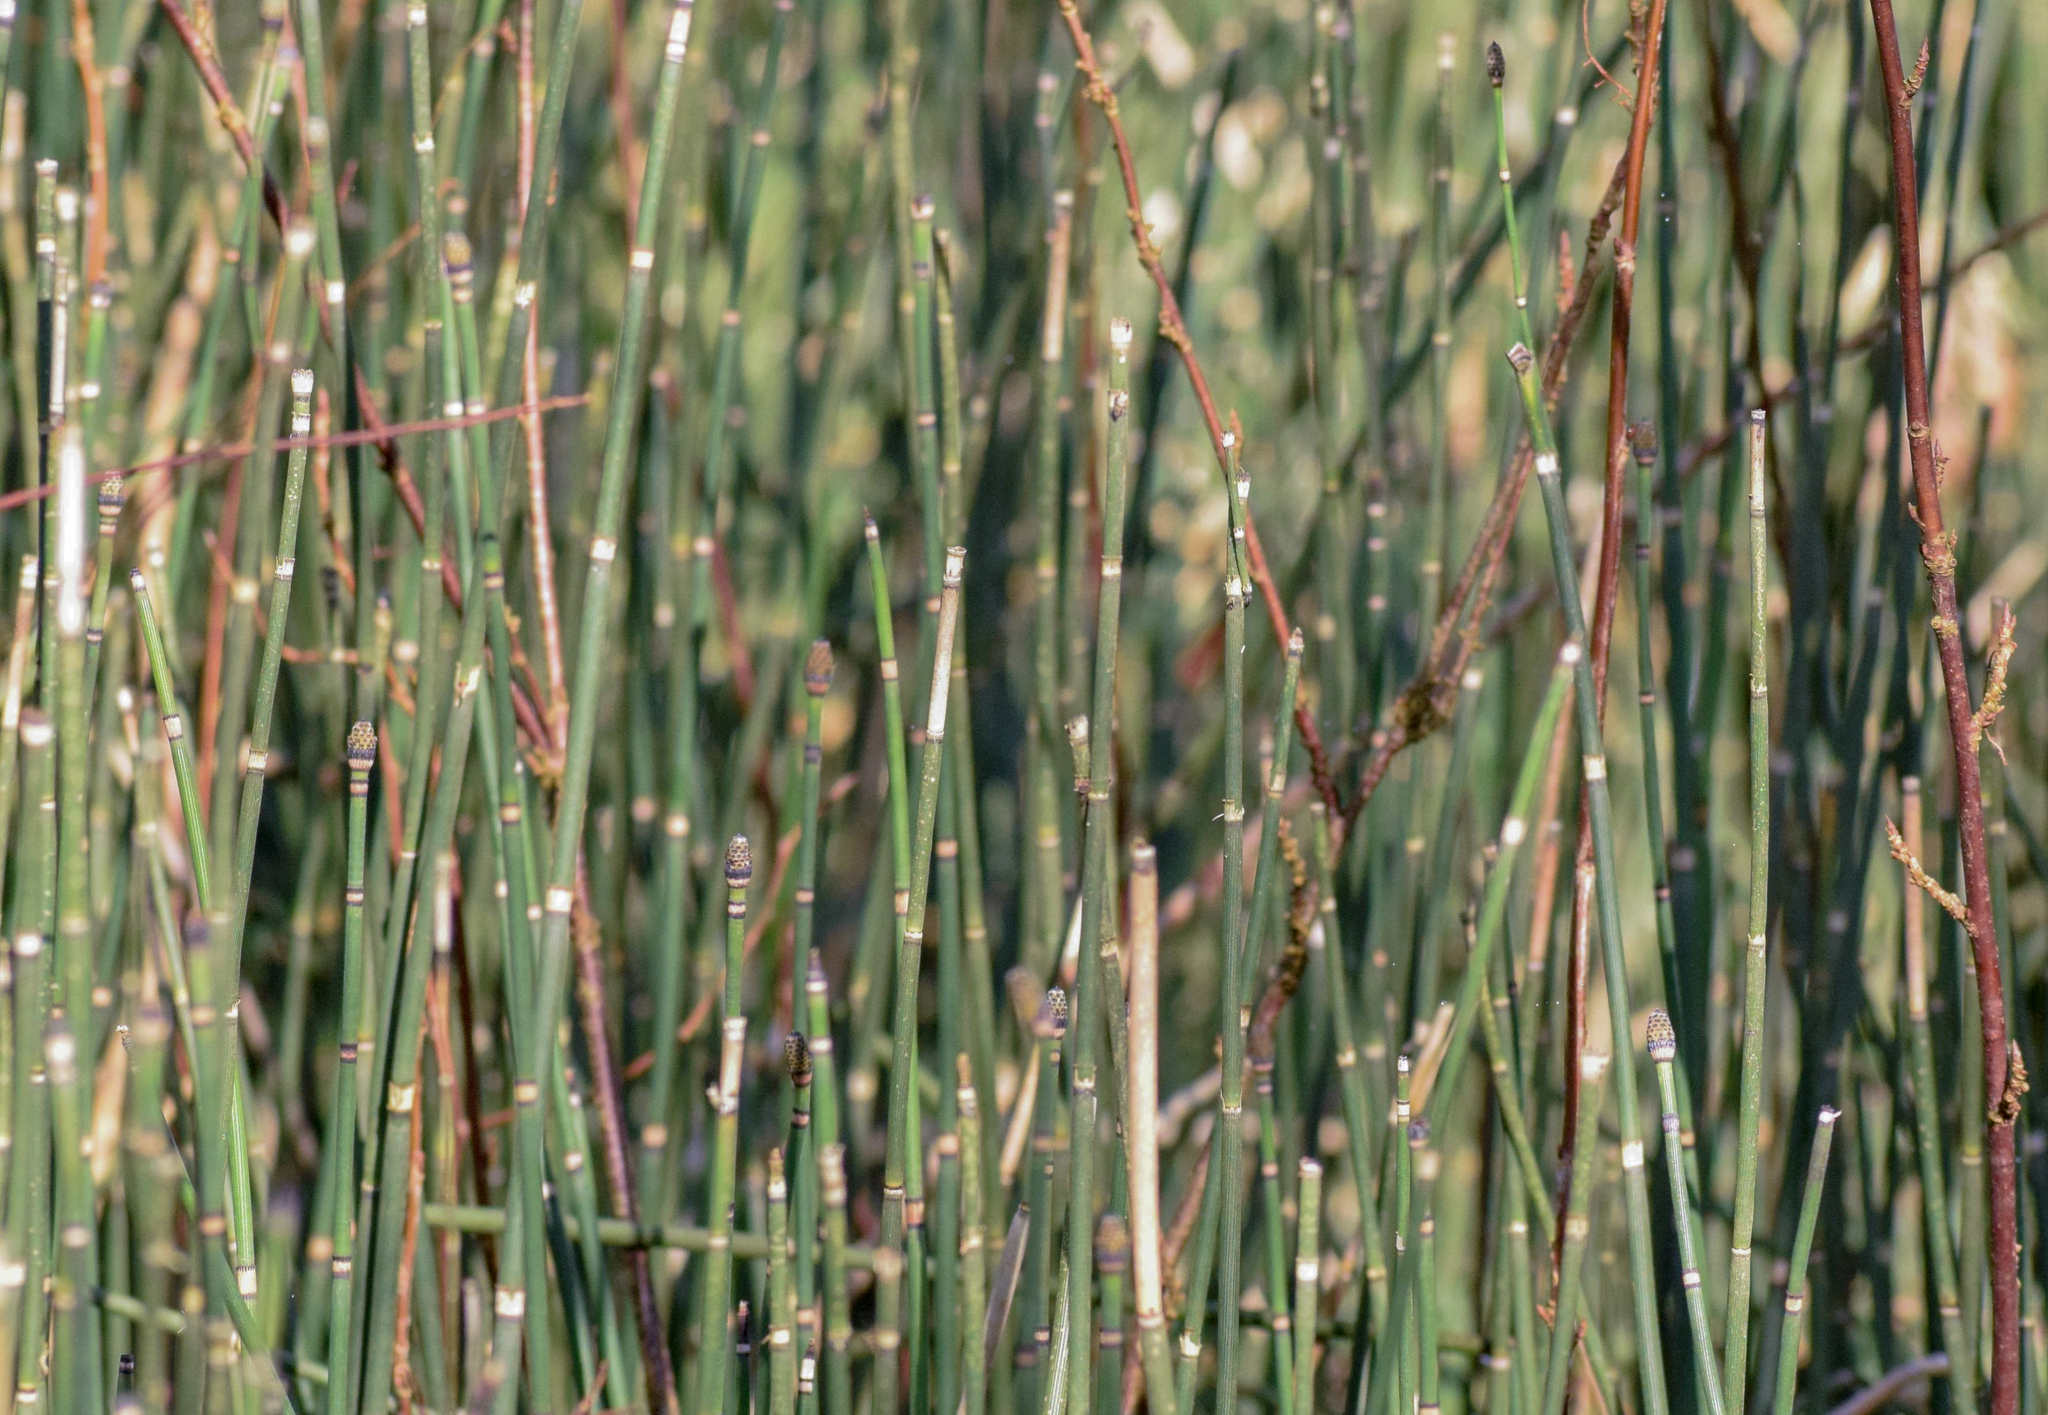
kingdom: Plantae
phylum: Tracheophyta
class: Polypodiopsida
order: Equisetales
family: Equisetaceae
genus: Equisetum
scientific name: Equisetum hyemale
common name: Rough horsetail
